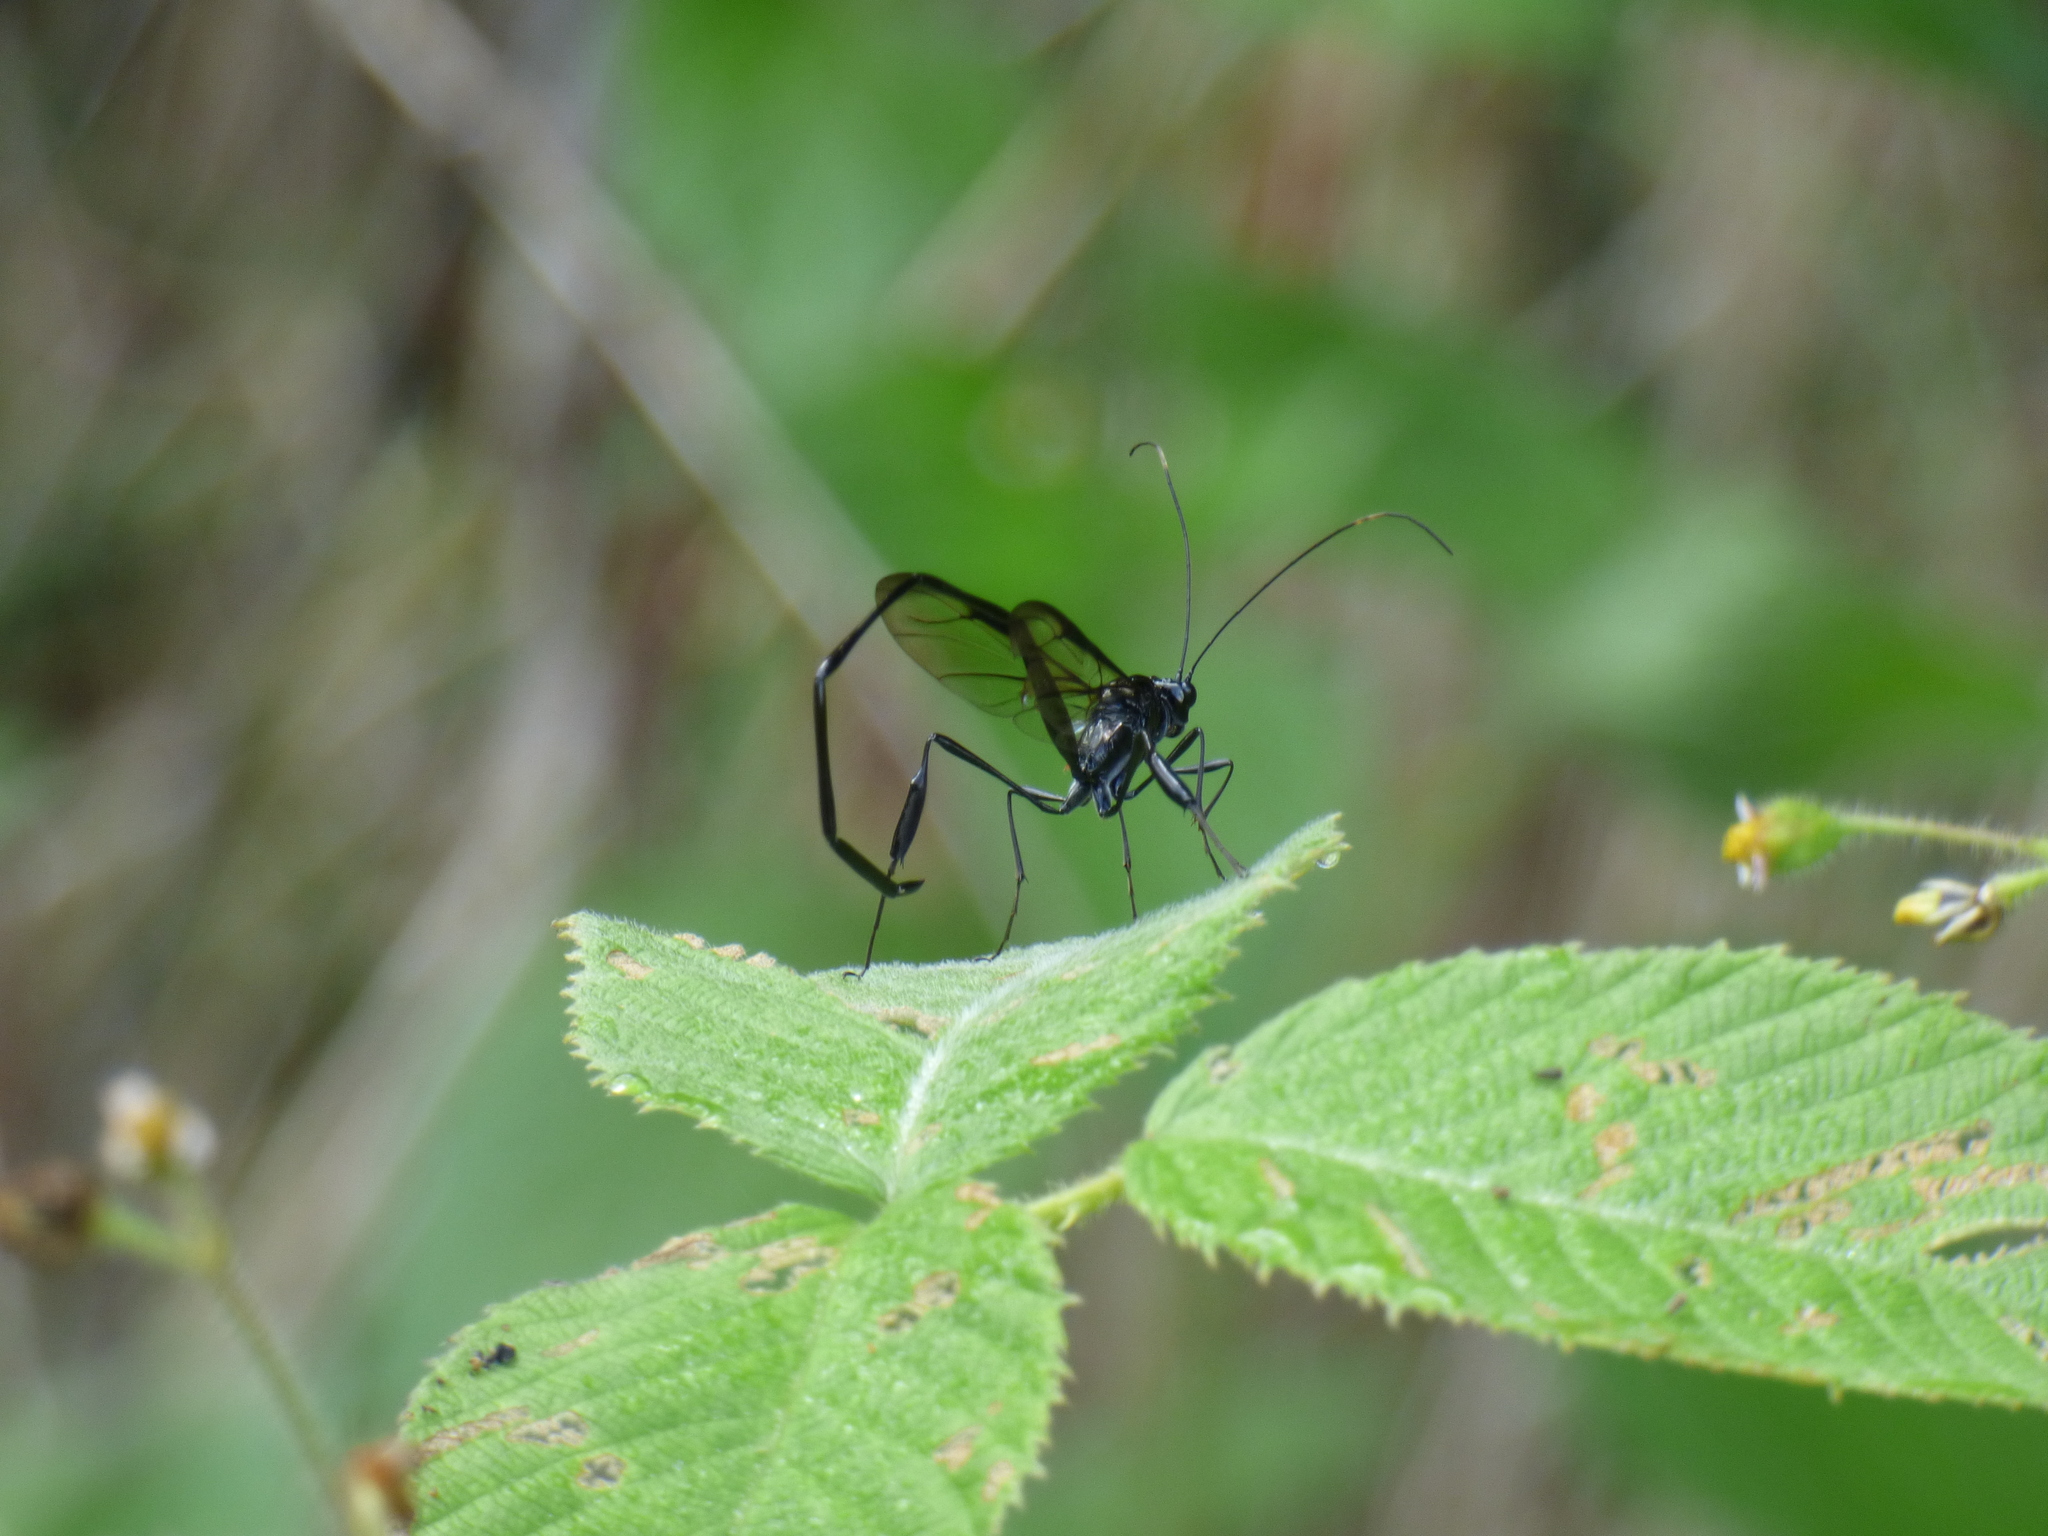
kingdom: Animalia
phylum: Arthropoda
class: Insecta
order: Hymenoptera
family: Pelecinidae
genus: Pelecinus
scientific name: Pelecinus polyturator
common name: American pelecinid wasp
